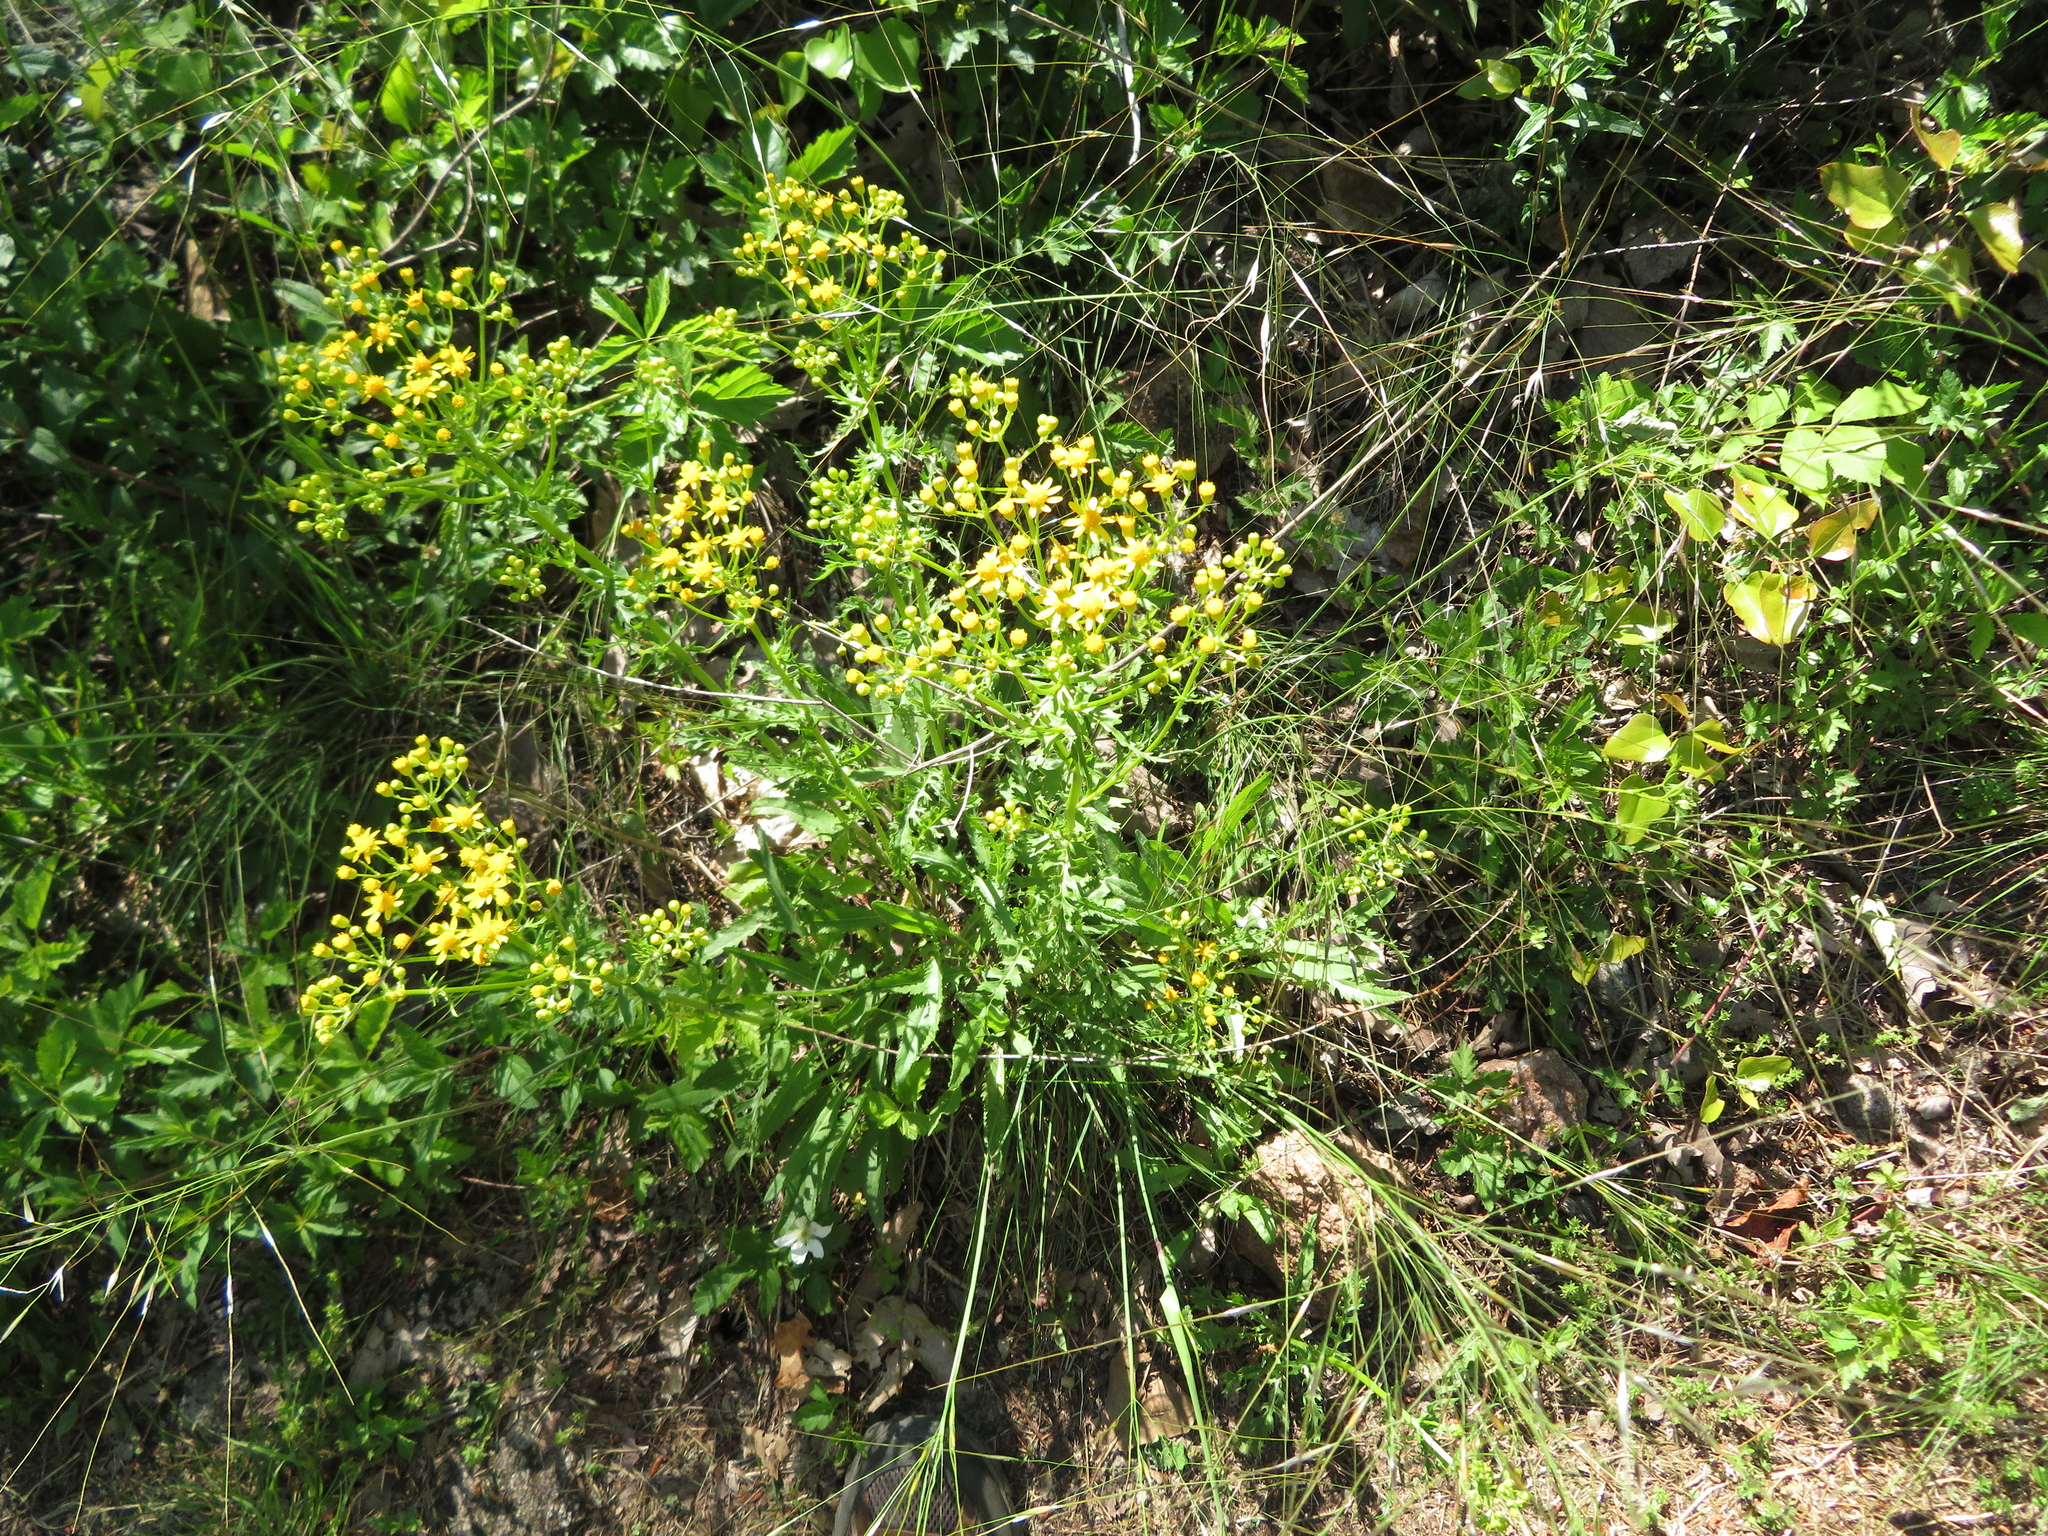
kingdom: Plantae
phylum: Tracheophyta
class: Magnoliopsida
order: Asterales
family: Asteraceae
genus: Packera
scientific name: Packera anonyma
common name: Small ragwort
